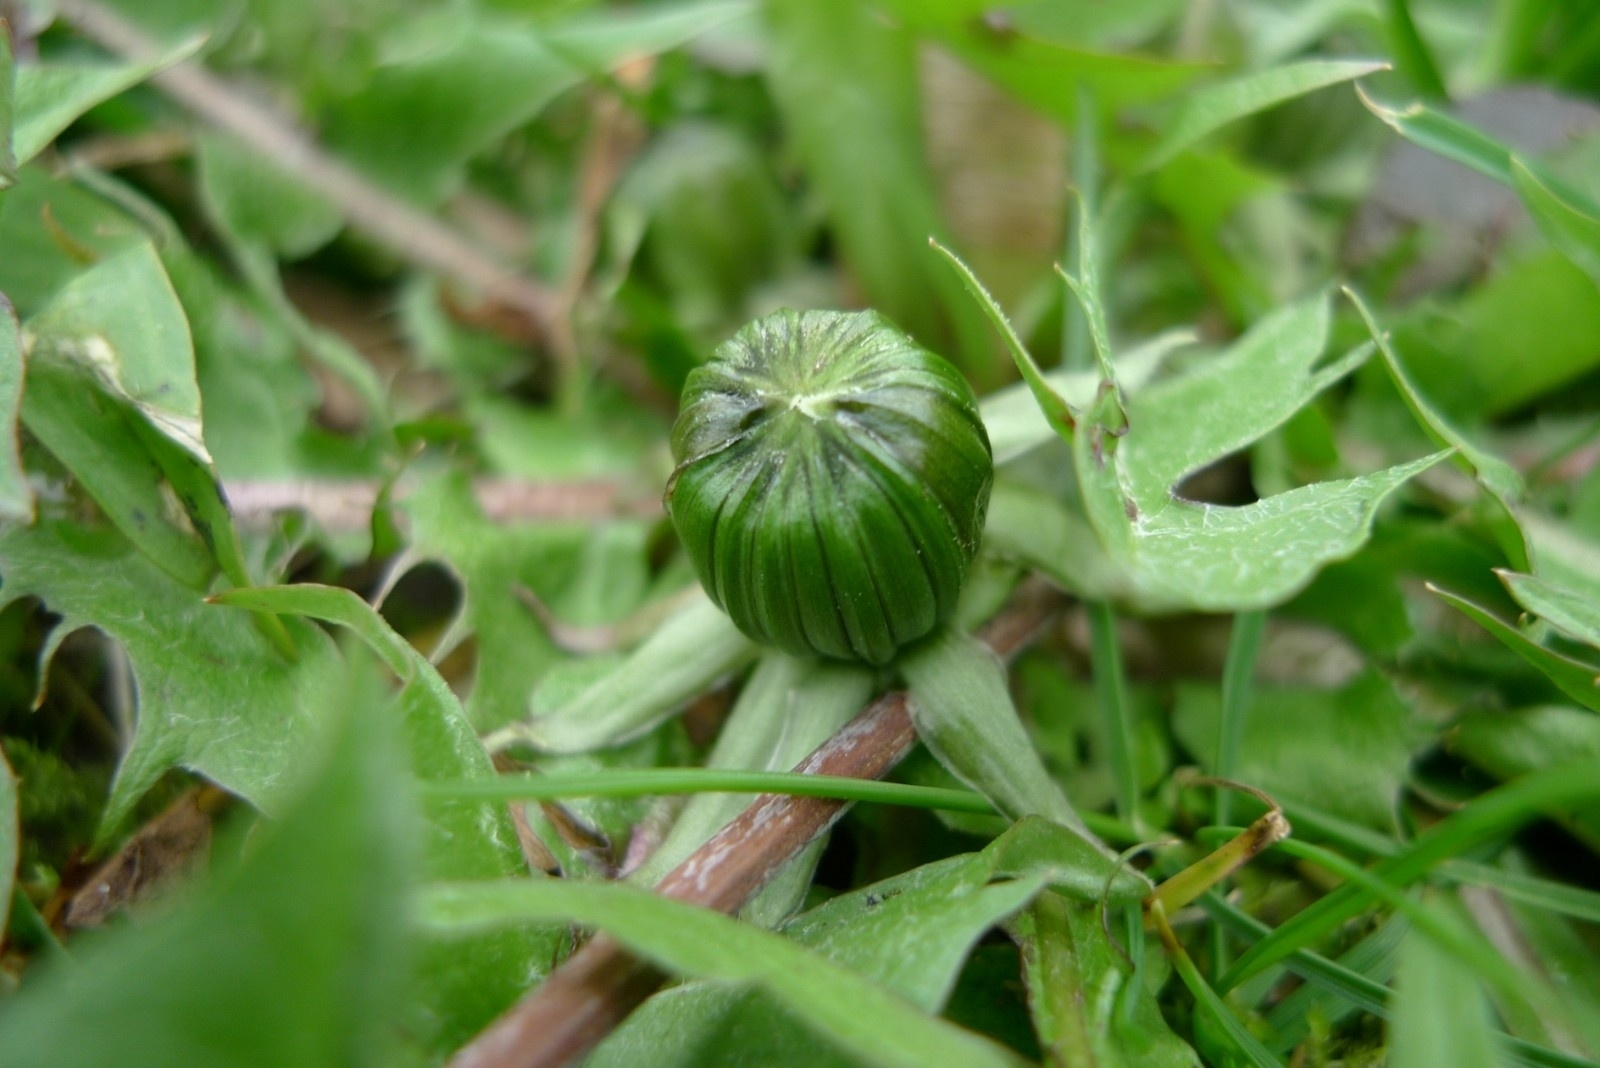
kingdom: Plantae
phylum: Tracheophyta
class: Magnoliopsida
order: Asterales
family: Asteraceae
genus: Taraxacum
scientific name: Taraxacum officinale
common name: Common dandelion
